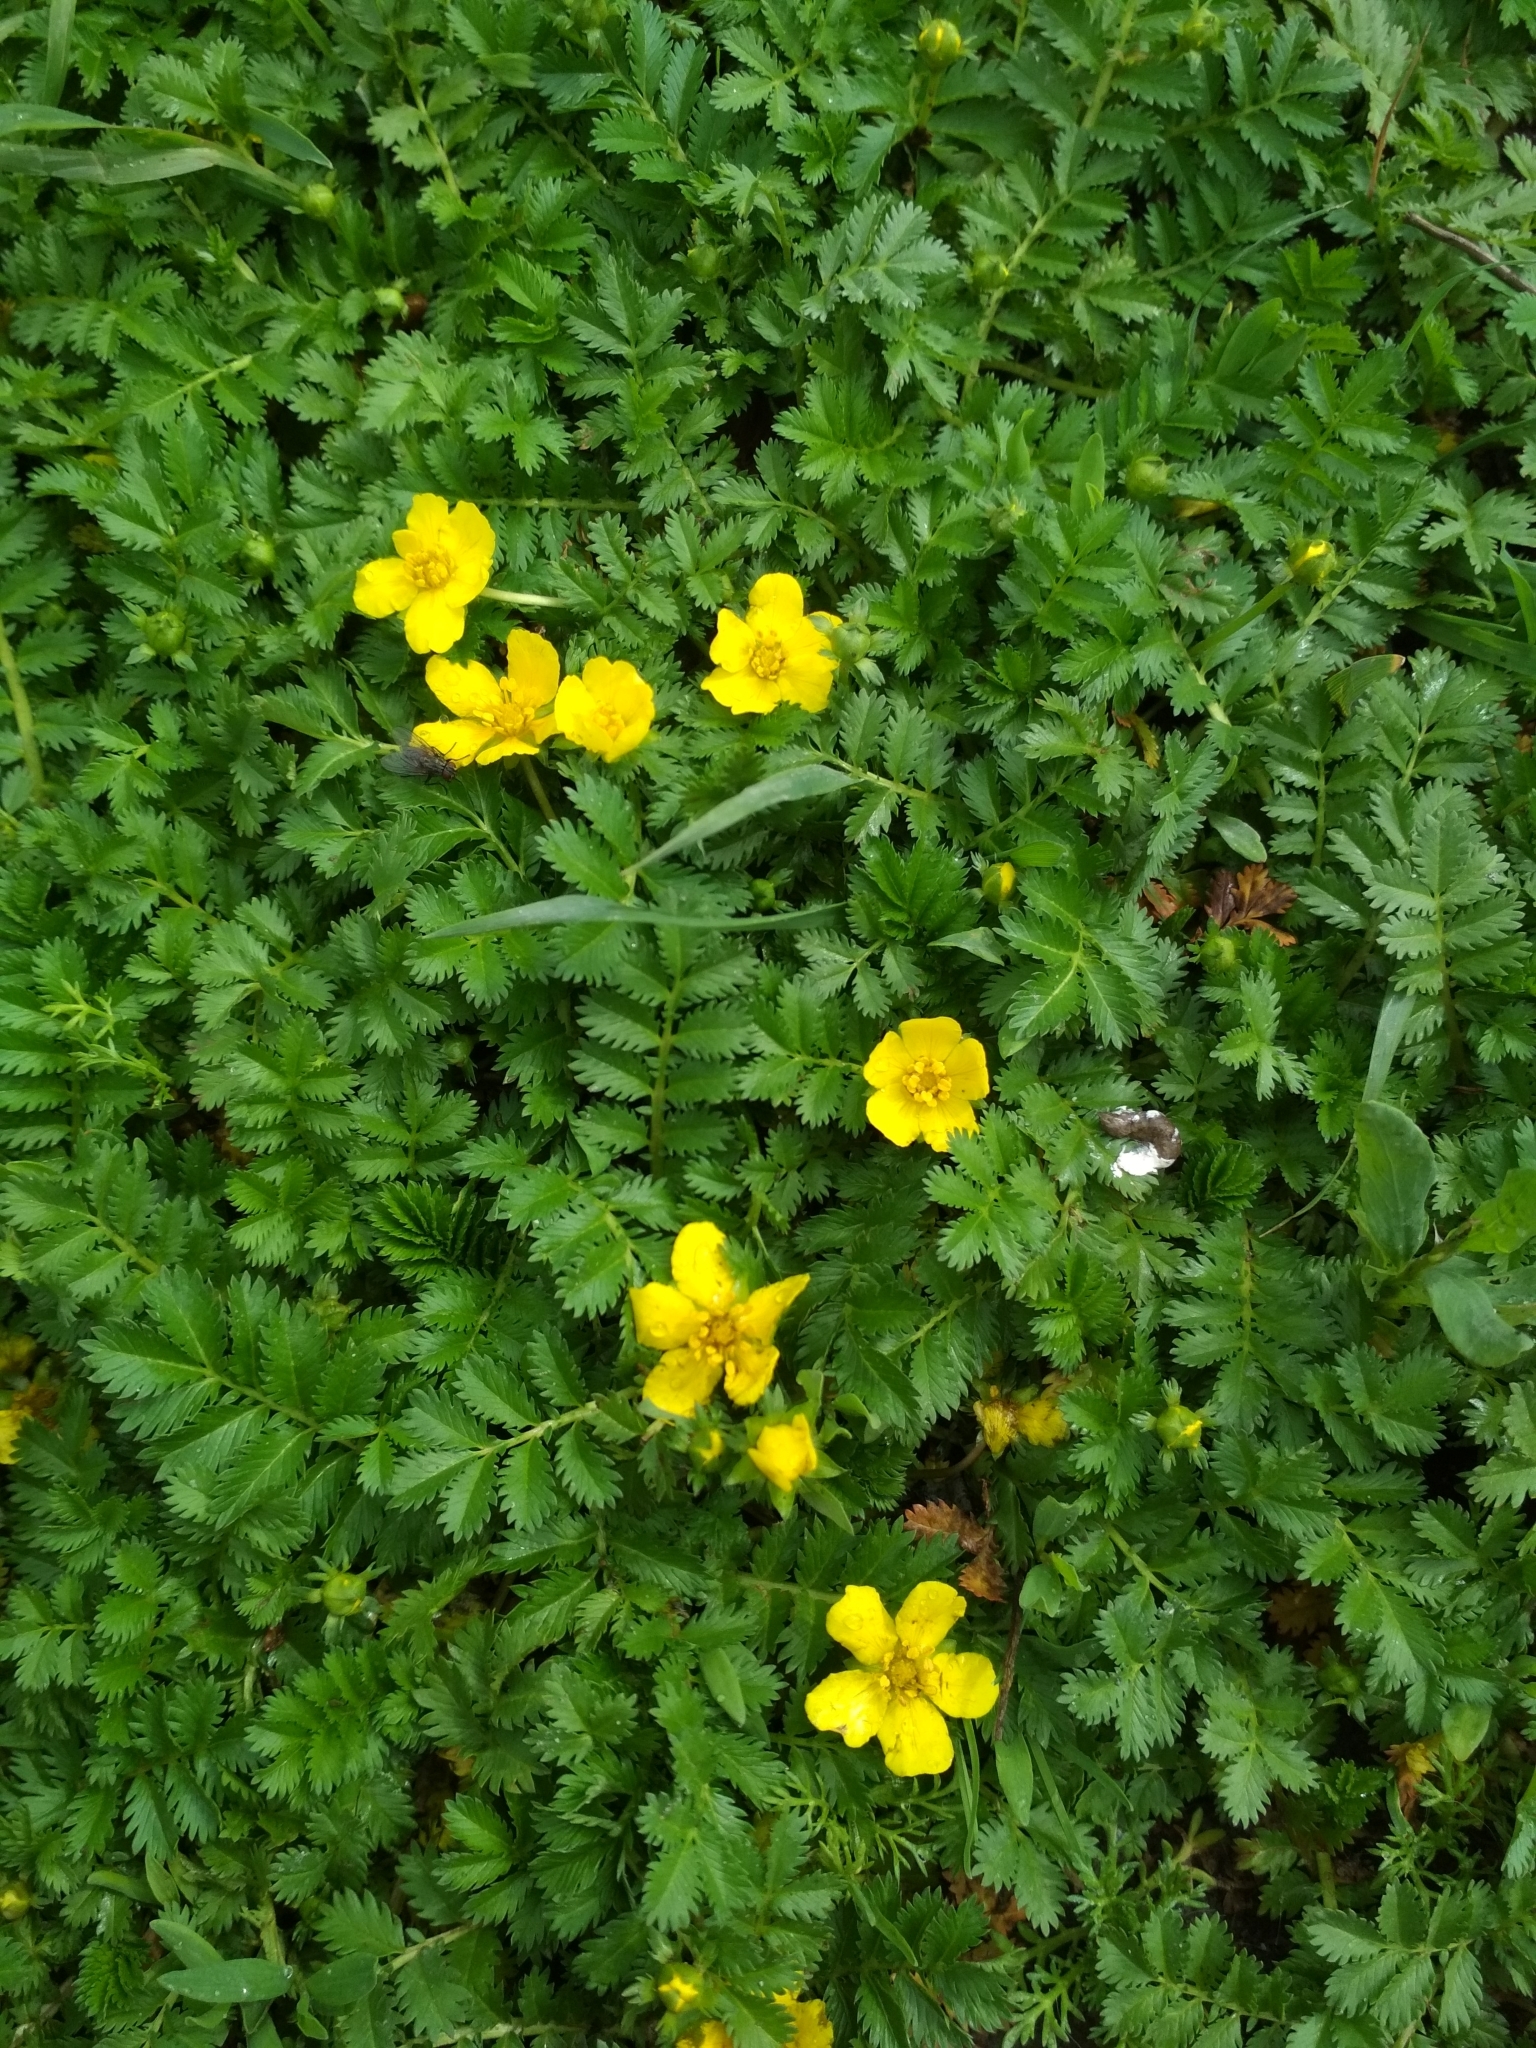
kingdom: Plantae
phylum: Tracheophyta
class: Magnoliopsida
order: Rosales
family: Rosaceae
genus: Argentina
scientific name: Argentina anserina
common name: Common silverweed
